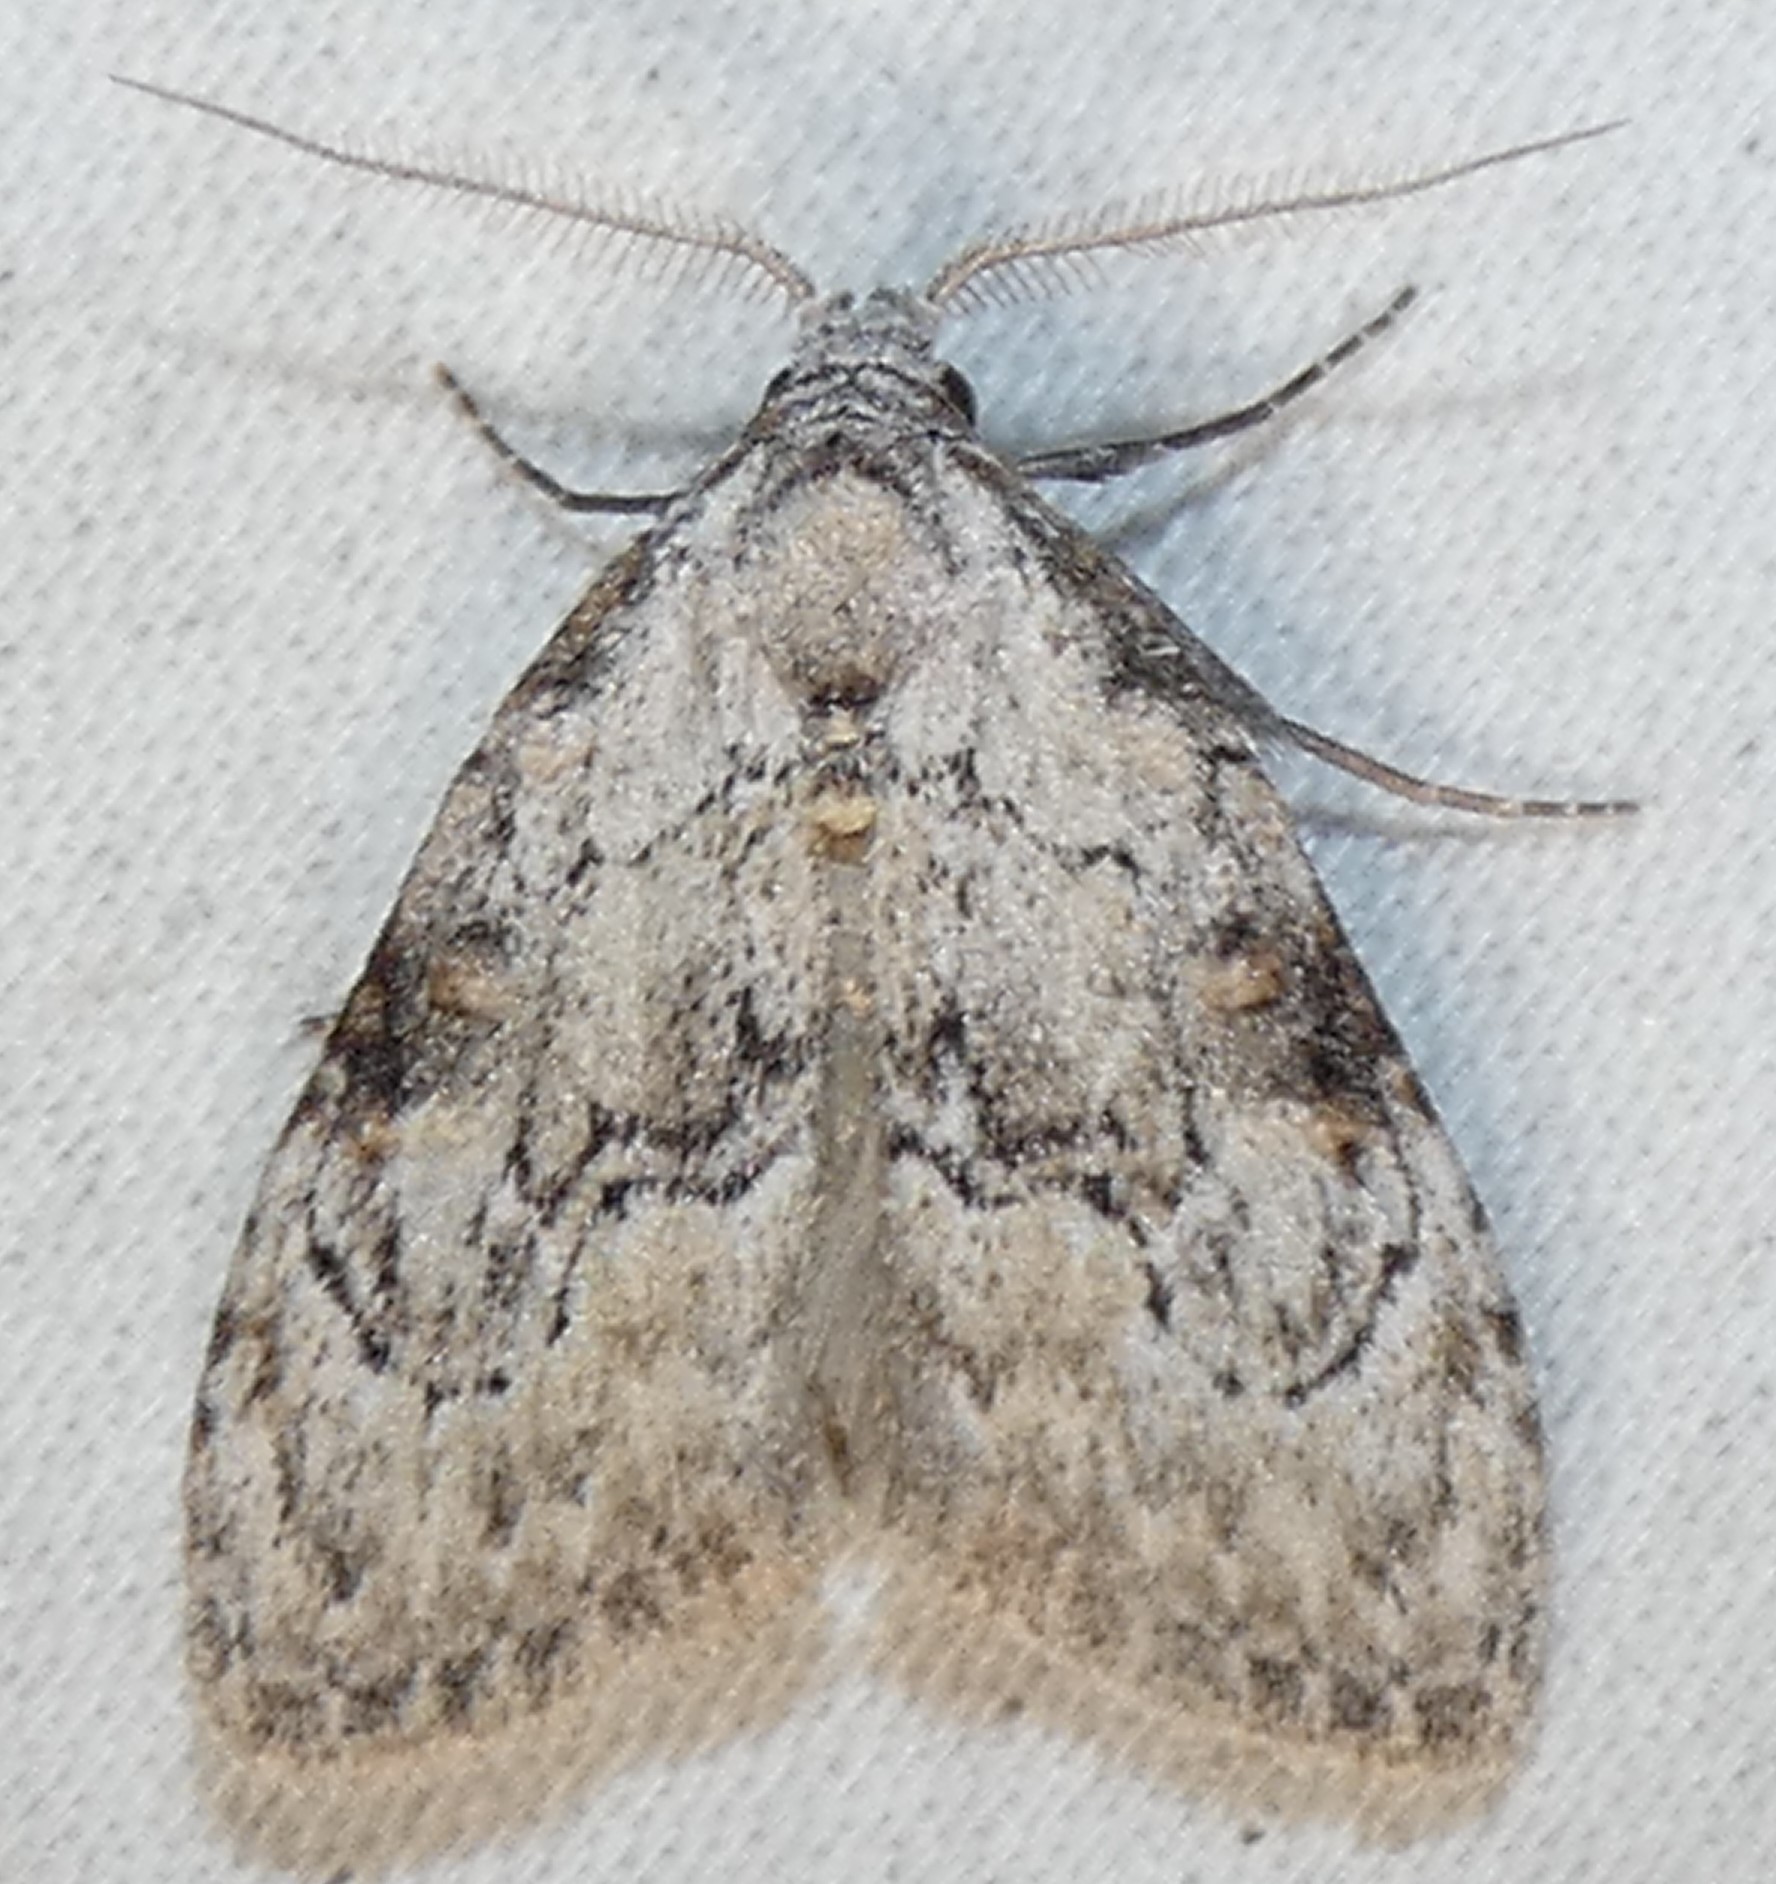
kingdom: Animalia
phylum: Arthropoda
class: Insecta
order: Lepidoptera
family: Nolidae
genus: Meganola
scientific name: Meganola minuscula
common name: Confused meganola moth
